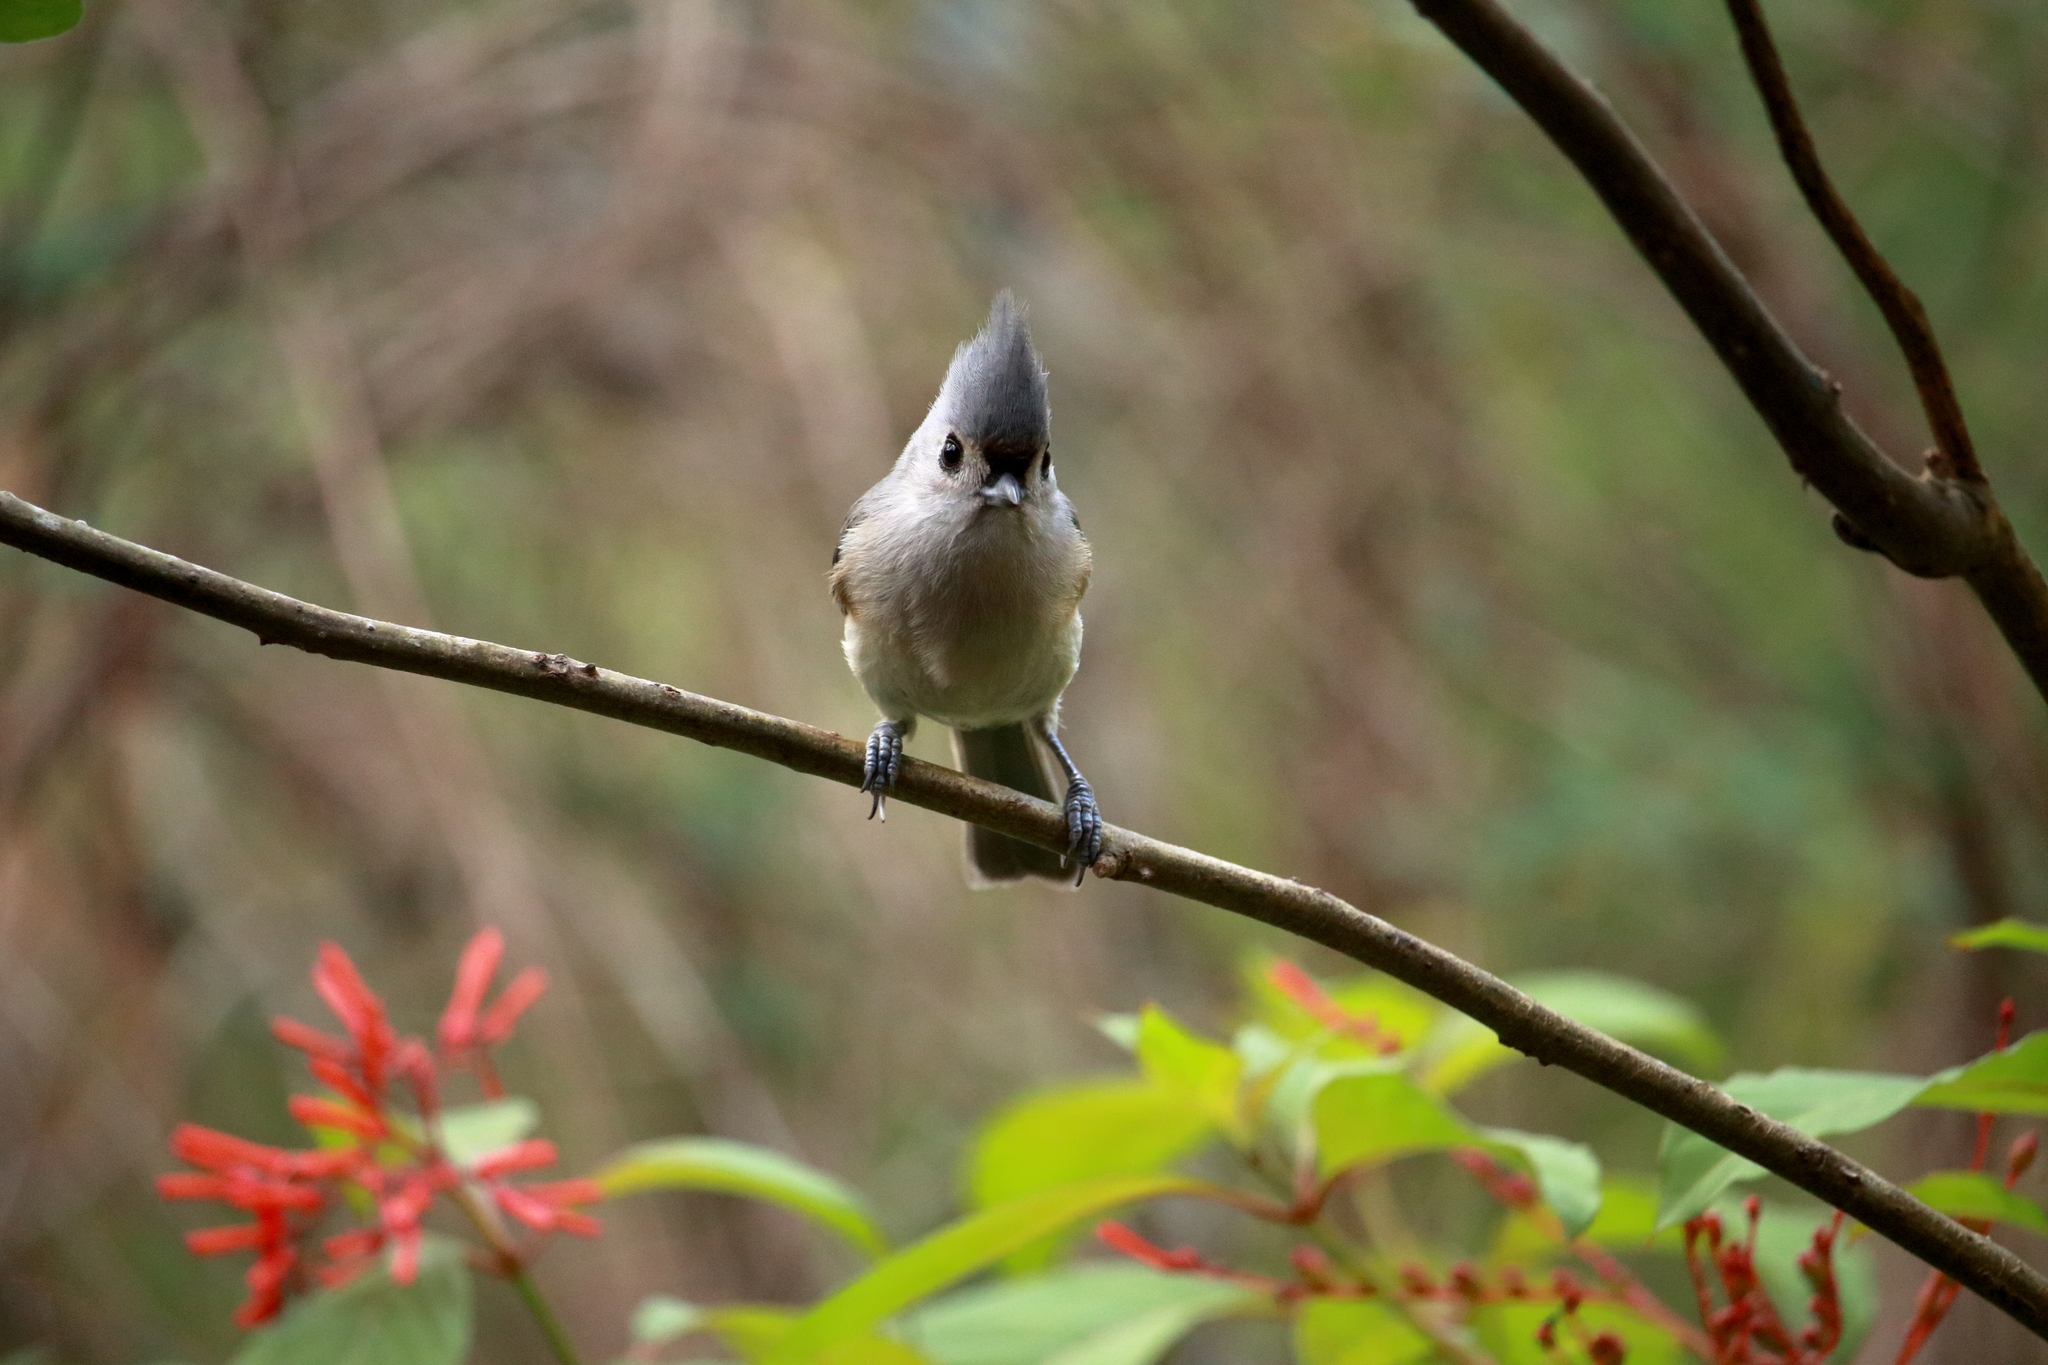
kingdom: Animalia
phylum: Chordata
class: Aves
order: Passeriformes
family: Paridae
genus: Baeolophus
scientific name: Baeolophus bicolor
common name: Tufted titmouse
